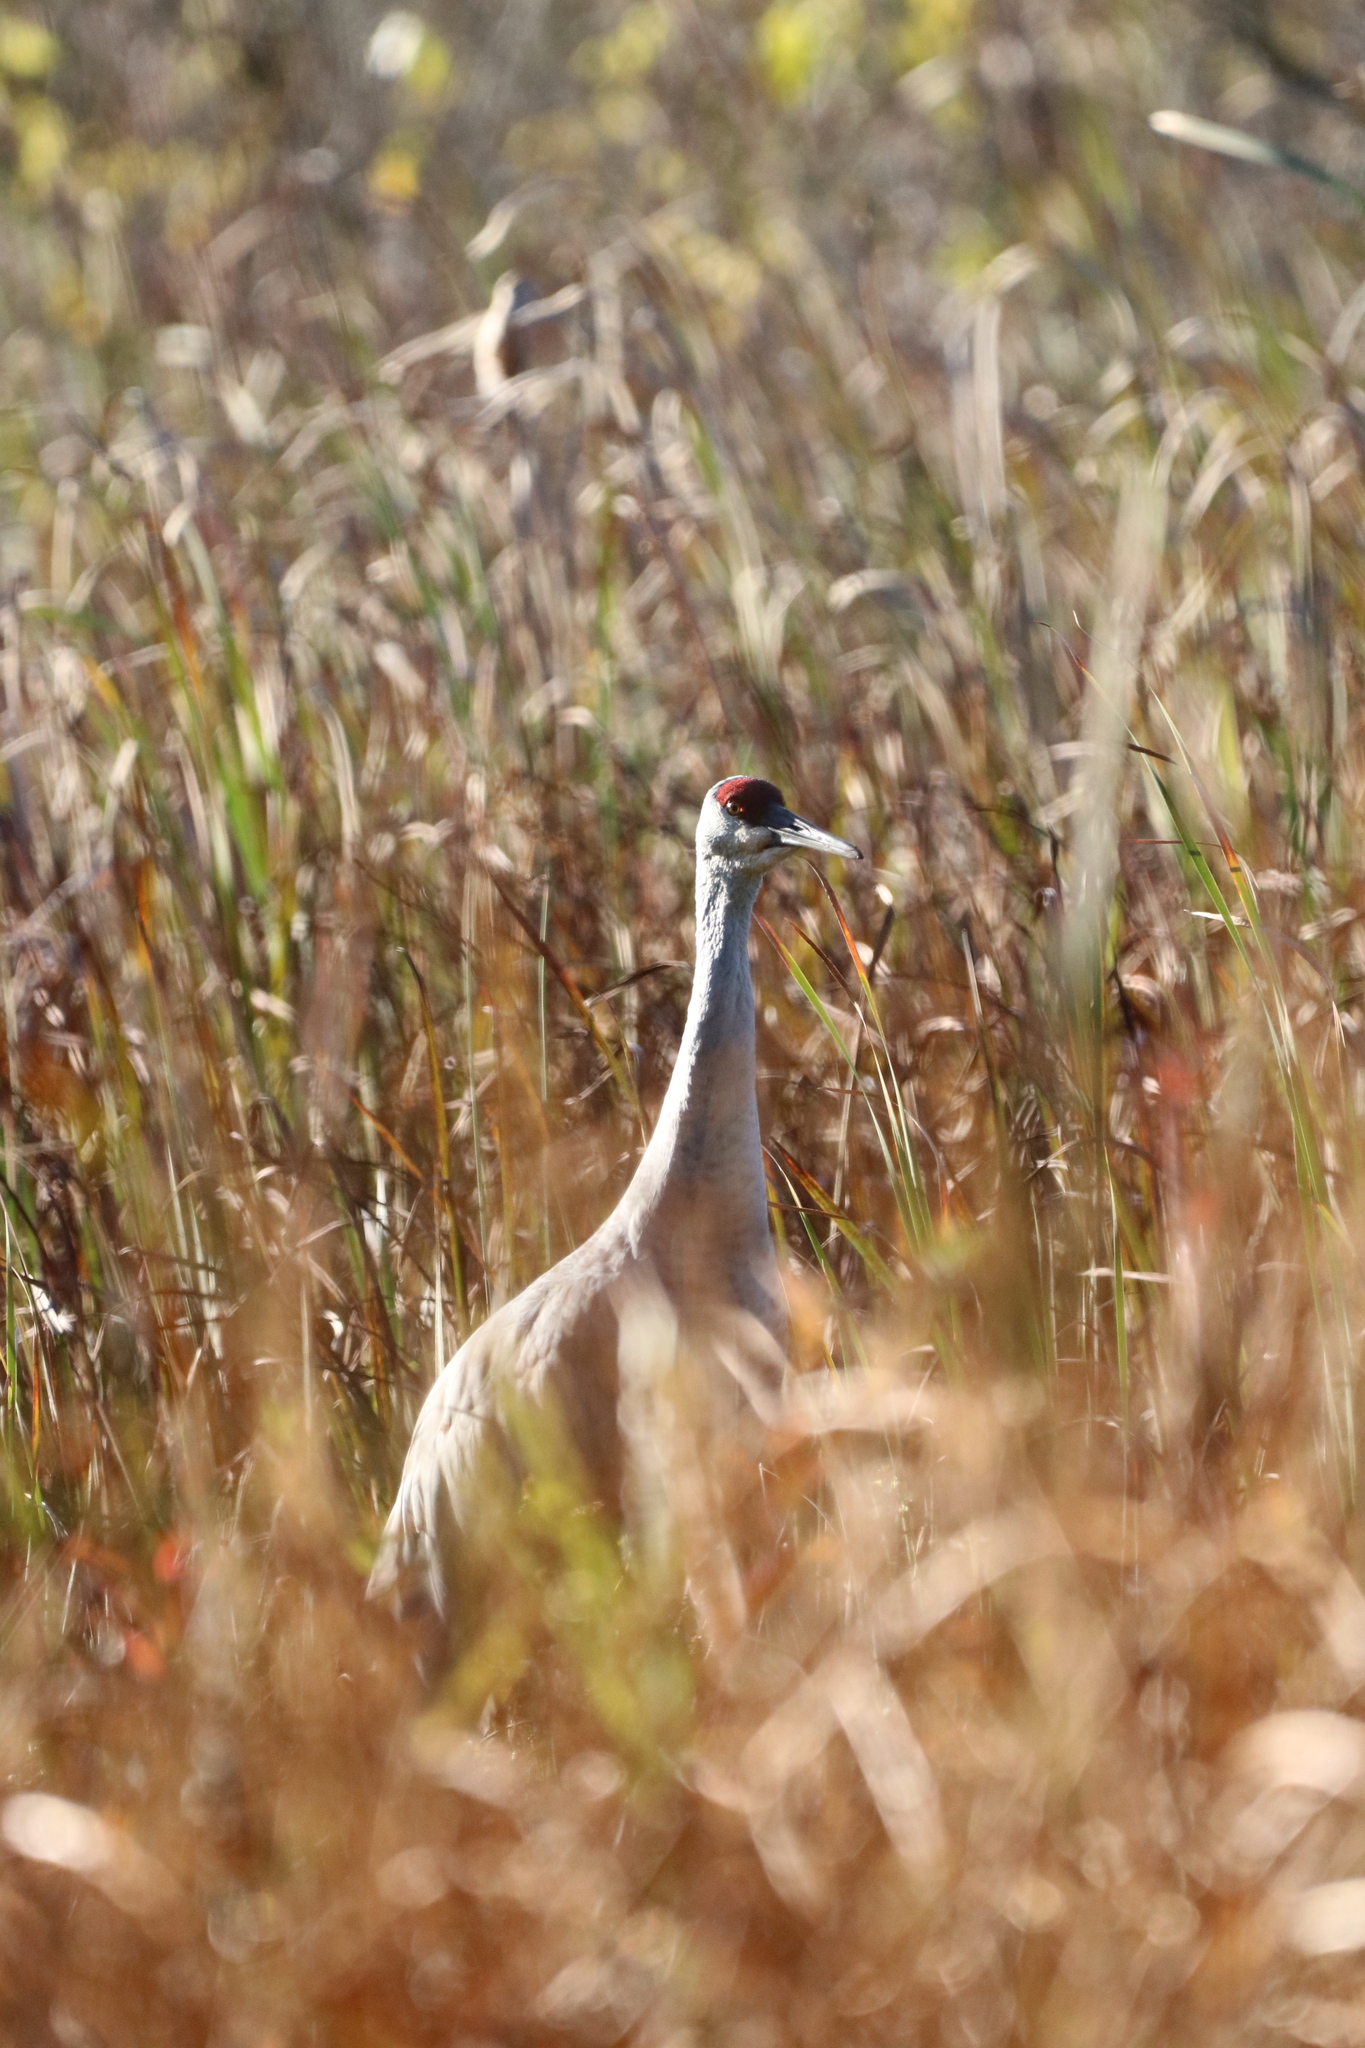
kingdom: Animalia
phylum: Chordata
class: Aves
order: Gruiformes
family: Gruidae
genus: Grus
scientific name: Grus canadensis
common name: Sandhill crane
